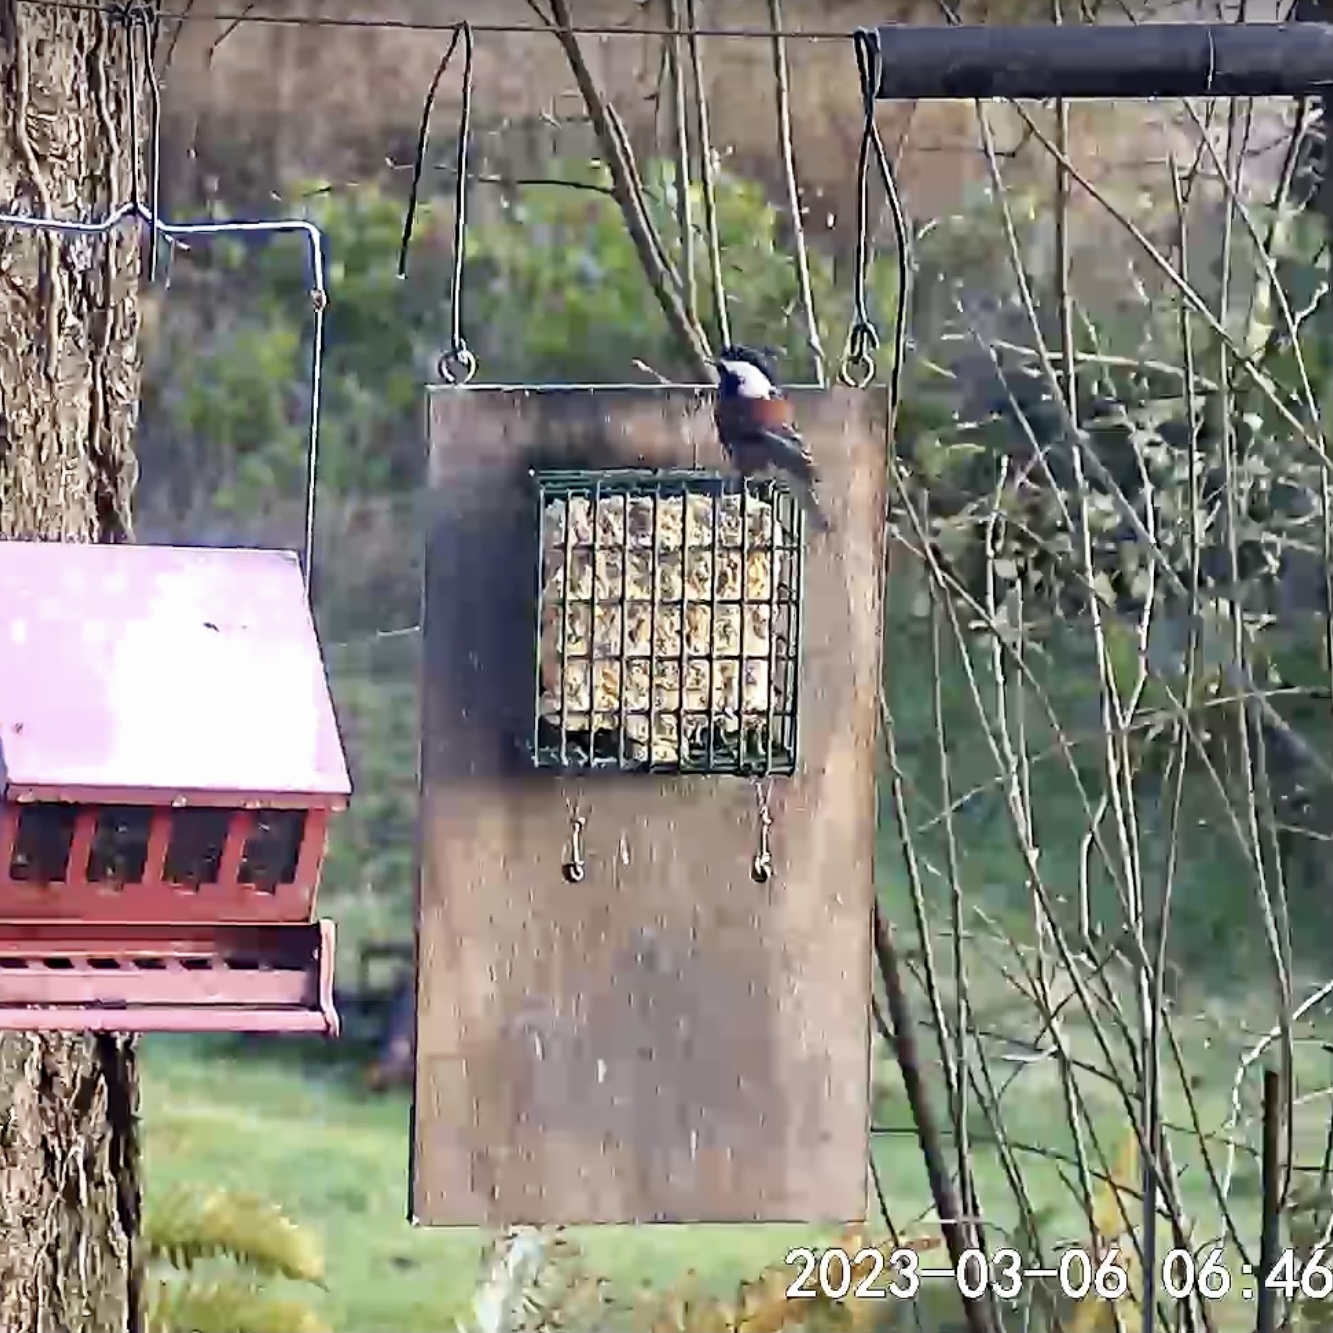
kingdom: Animalia
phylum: Chordata
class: Aves
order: Passeriformes
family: Paridae
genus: Poecile
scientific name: Poecile rufescens
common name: Chestnut-backed chickadee
